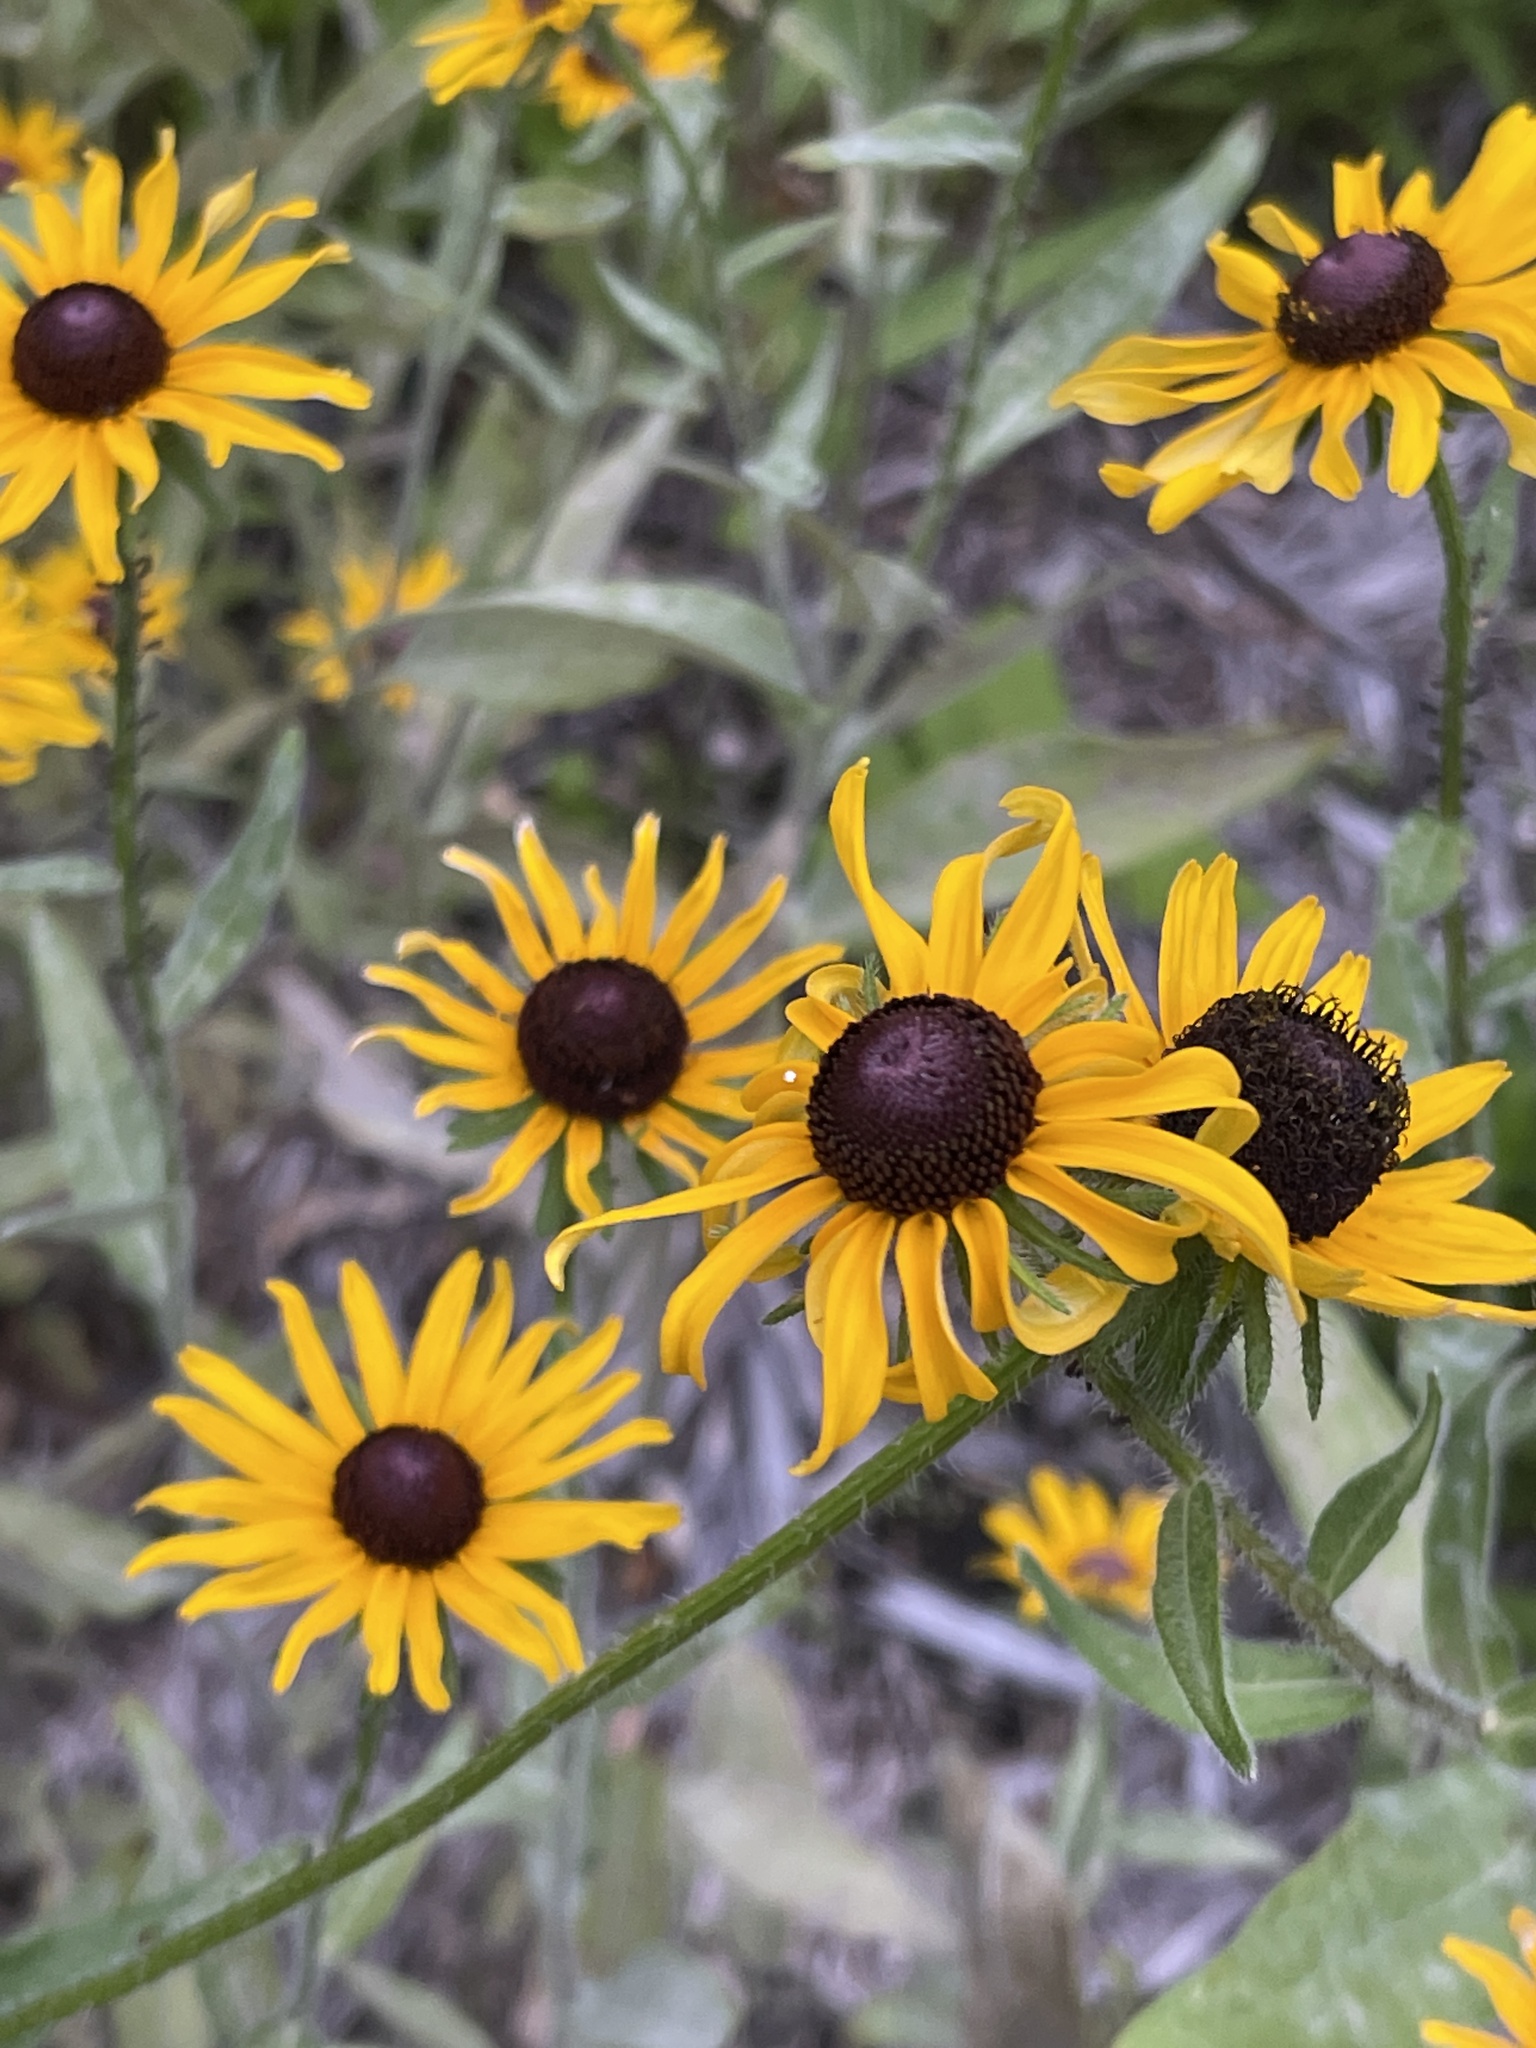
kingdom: Plantae
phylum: Tracheophyta
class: Magnoliopsida
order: Asterales
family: Asteraceae
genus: Rudbeckia
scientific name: Rudbeckia hirta
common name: Black-eyed-susan
